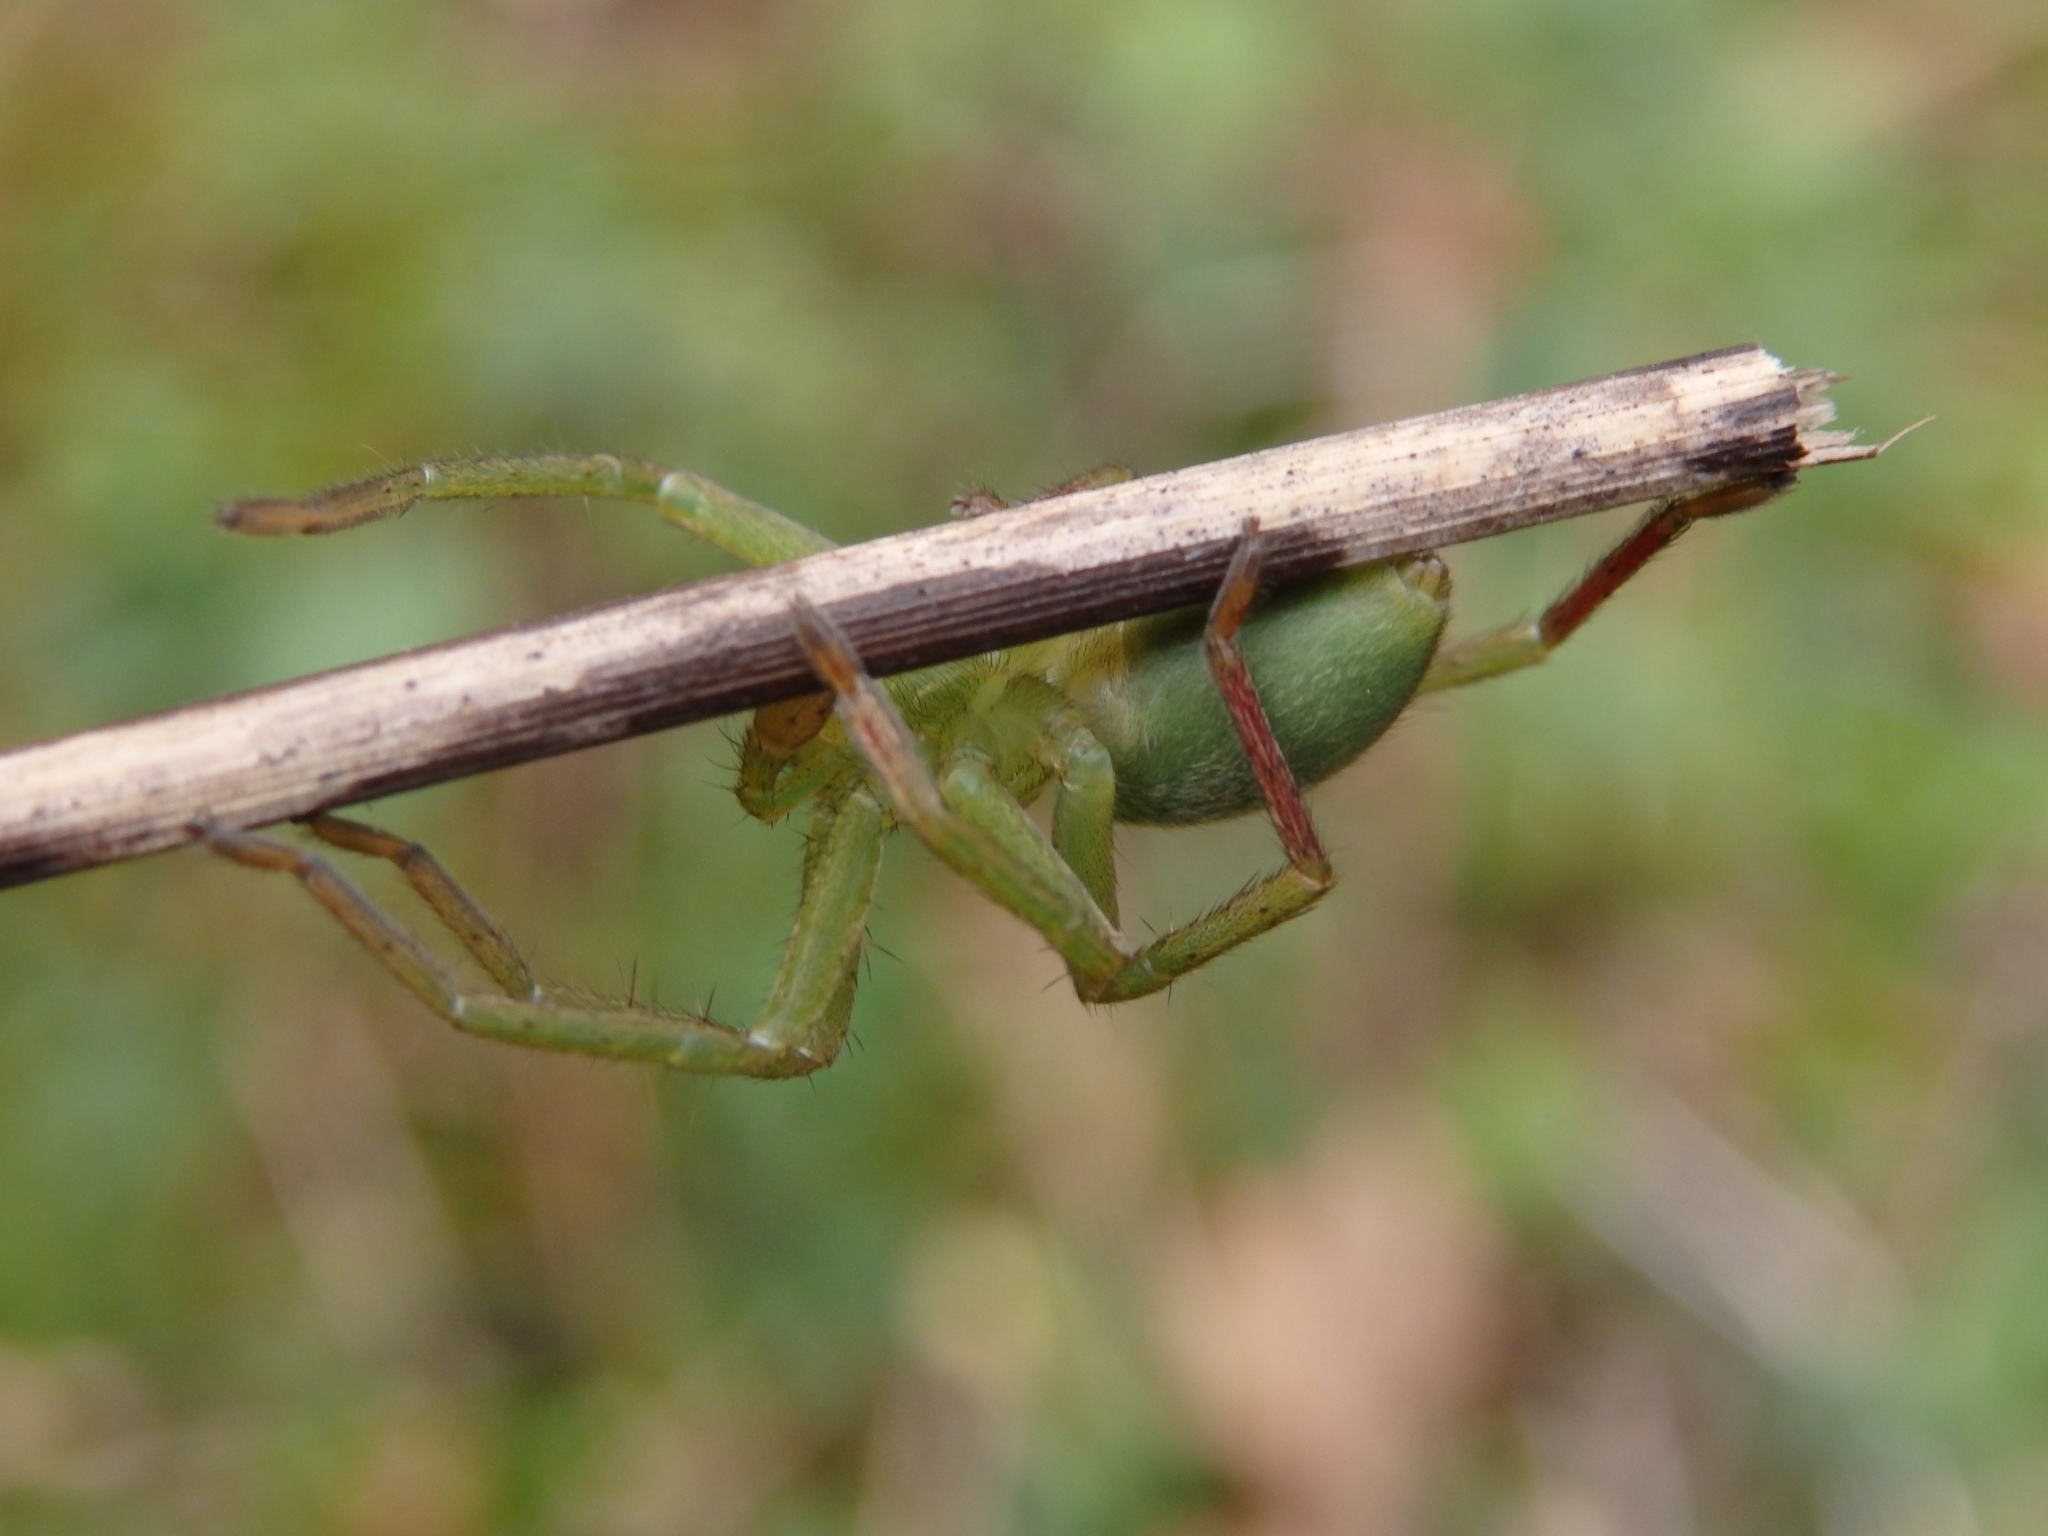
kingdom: Animalia
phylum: Arthropoda
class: Arachnida
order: Araneae
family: Sparassidae
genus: Micrommata
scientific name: Micrommata ligurina
